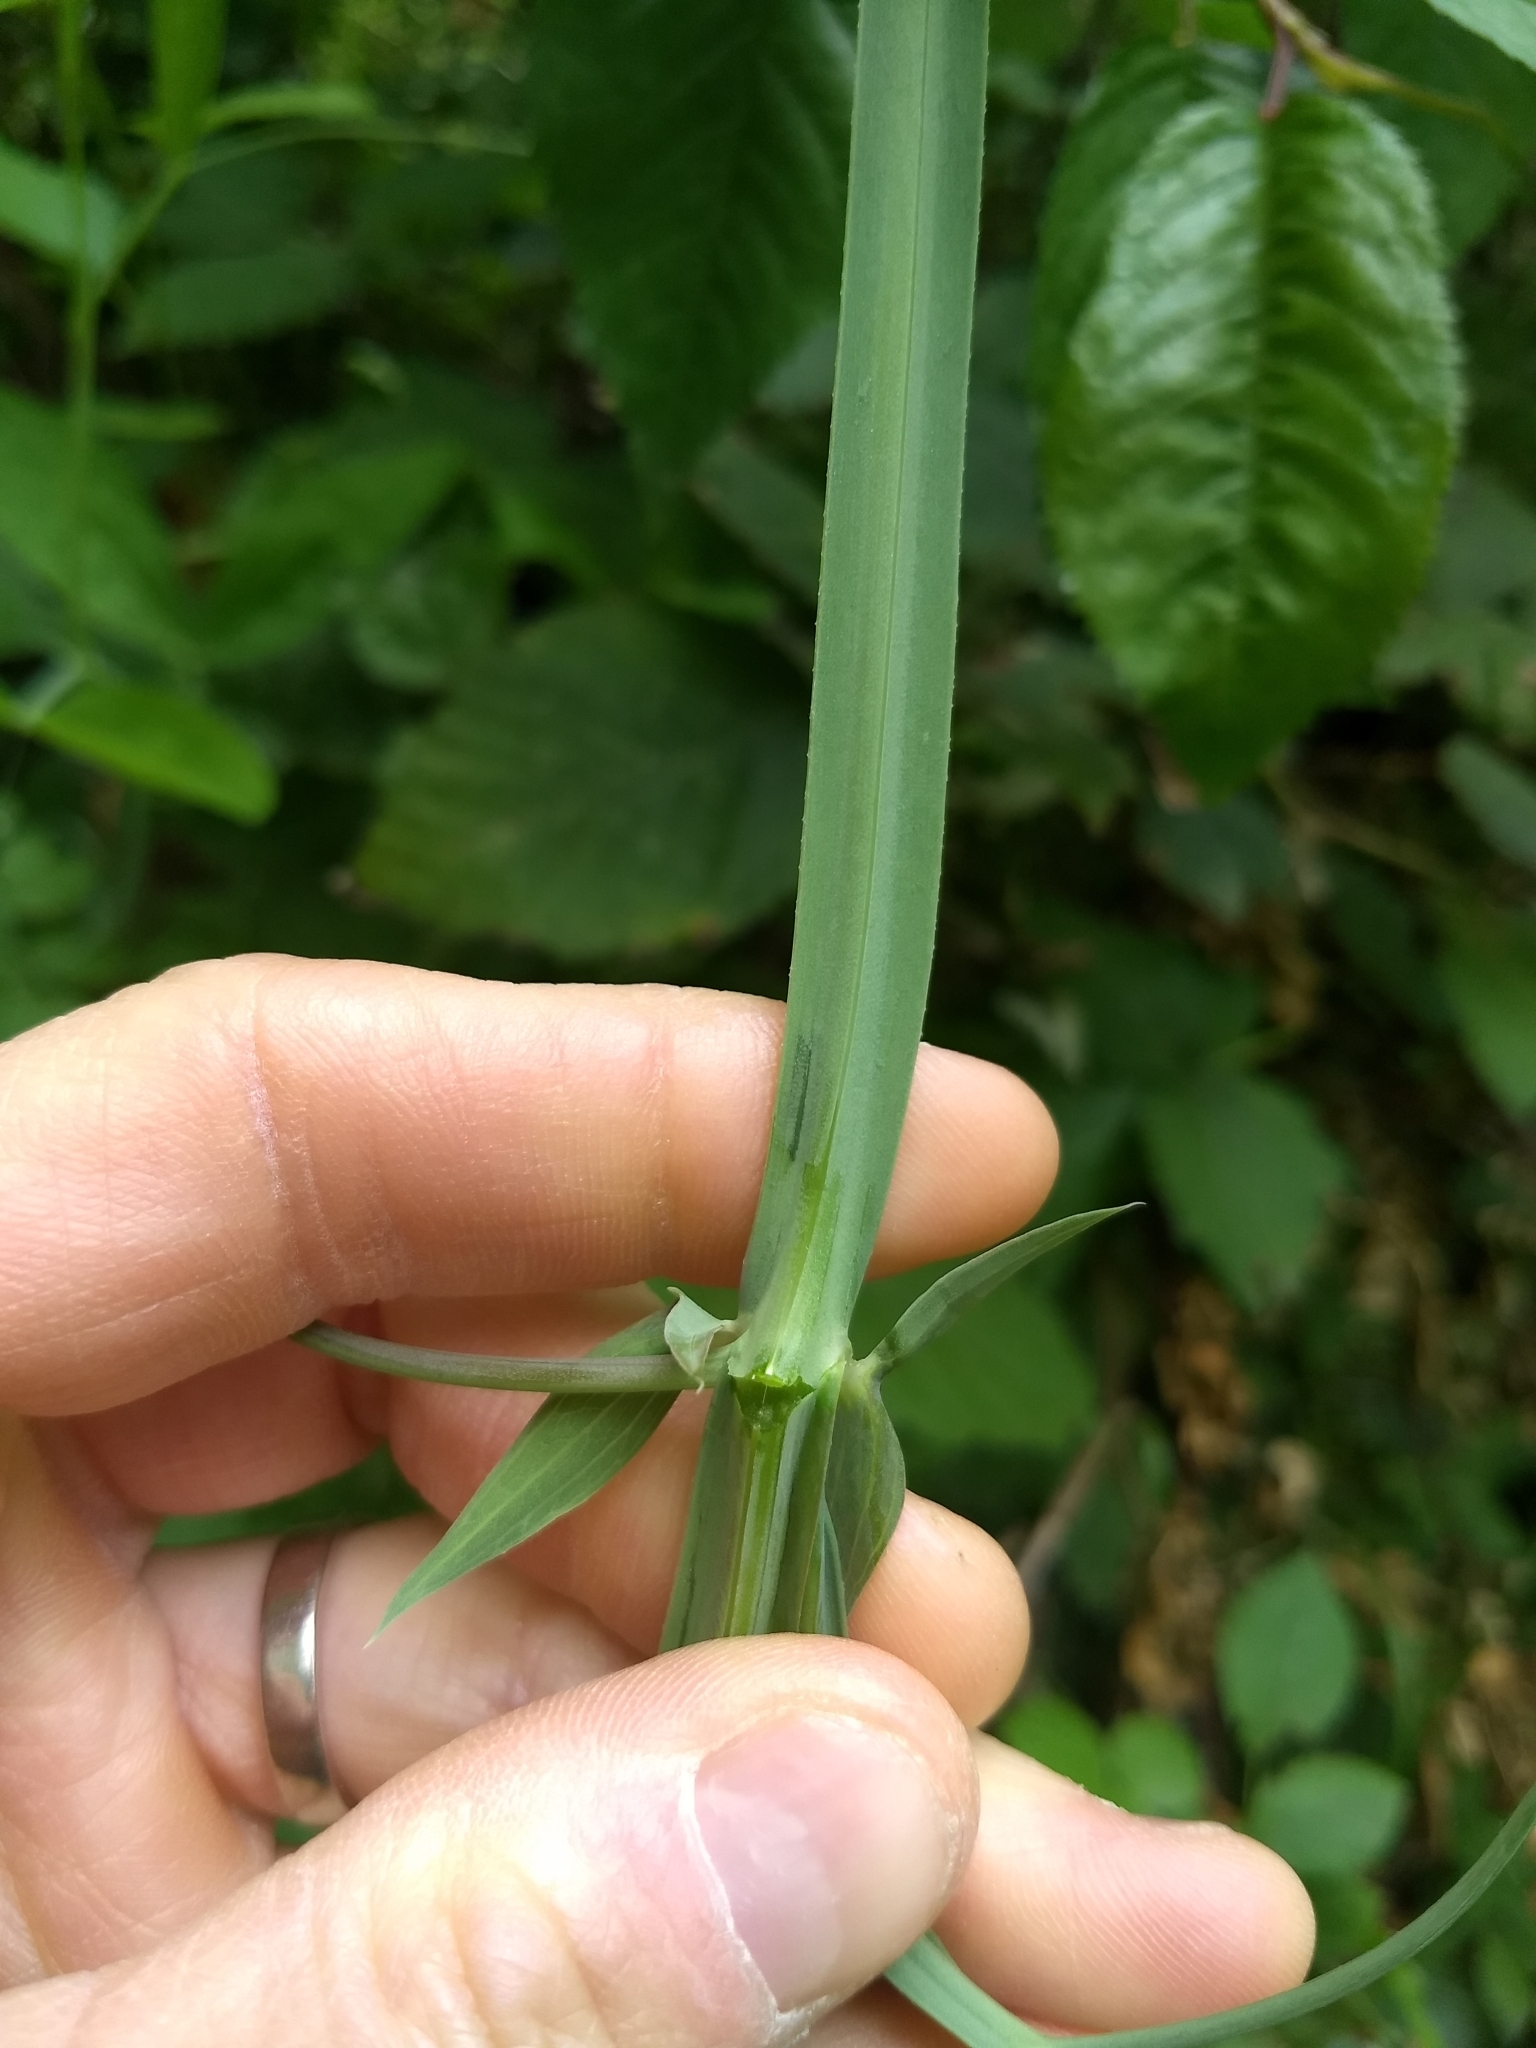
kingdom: Plantae
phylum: Tracheophyta
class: Magnoliopsida
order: Fabales
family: Fabaceae
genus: Lathyrus
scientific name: Lathyrus latifolius
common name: Perennial pea
